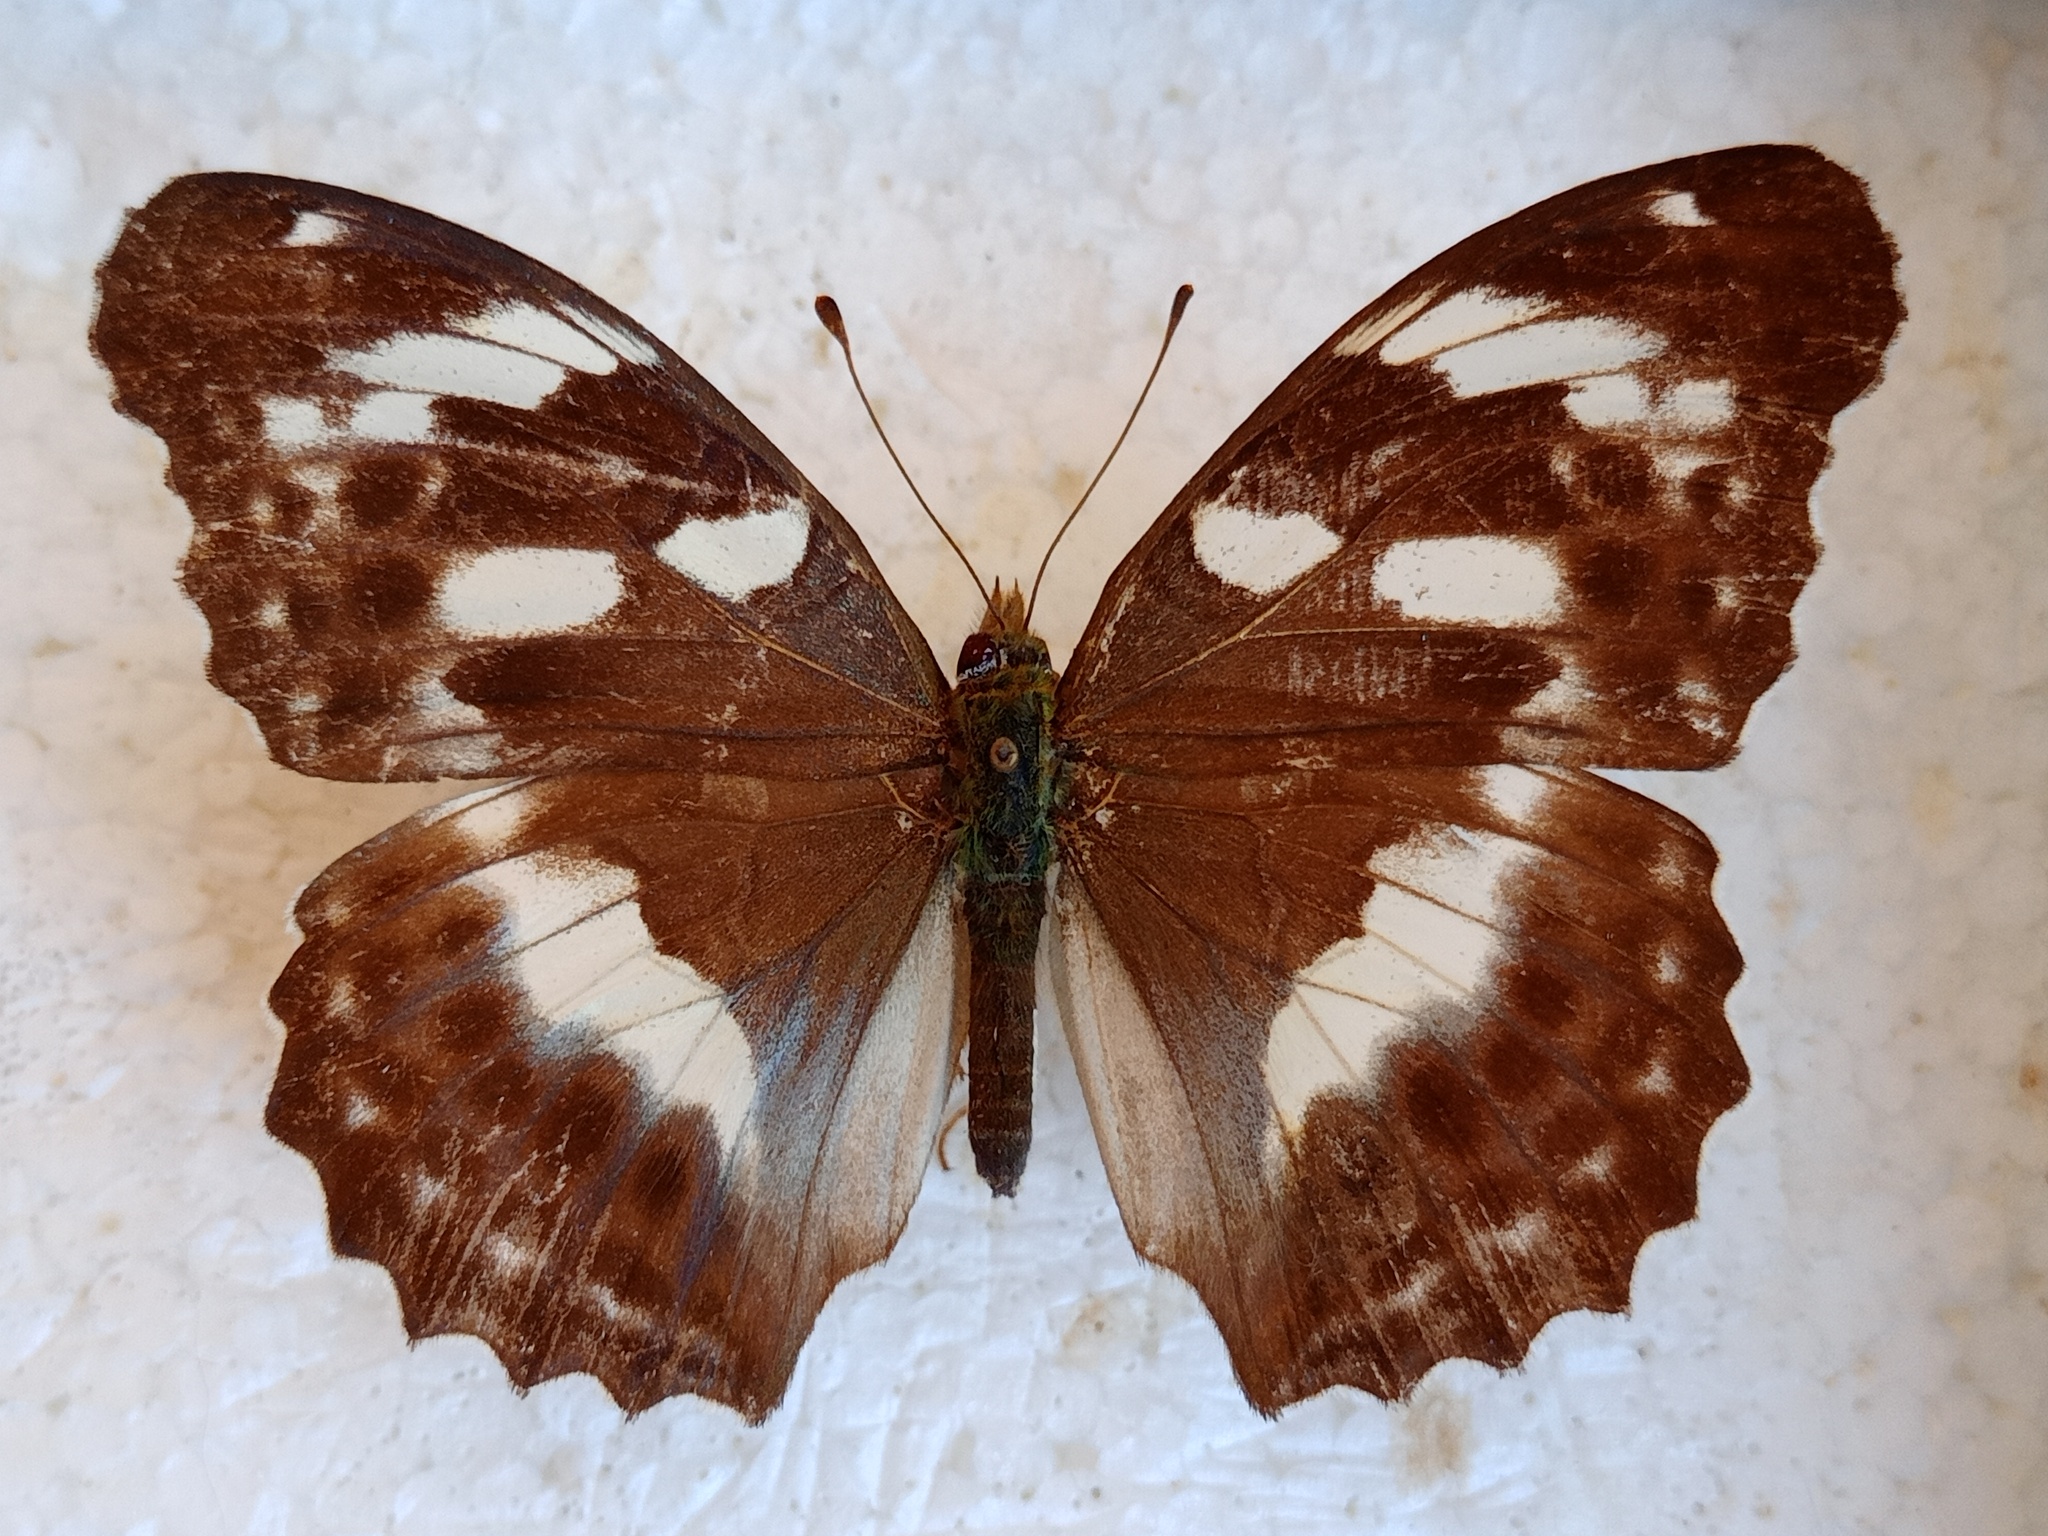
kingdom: Animalia
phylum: Arthropoda
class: Insecta
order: Lepidoptera
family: Nymphalidae
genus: Damora
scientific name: Damora sagana
